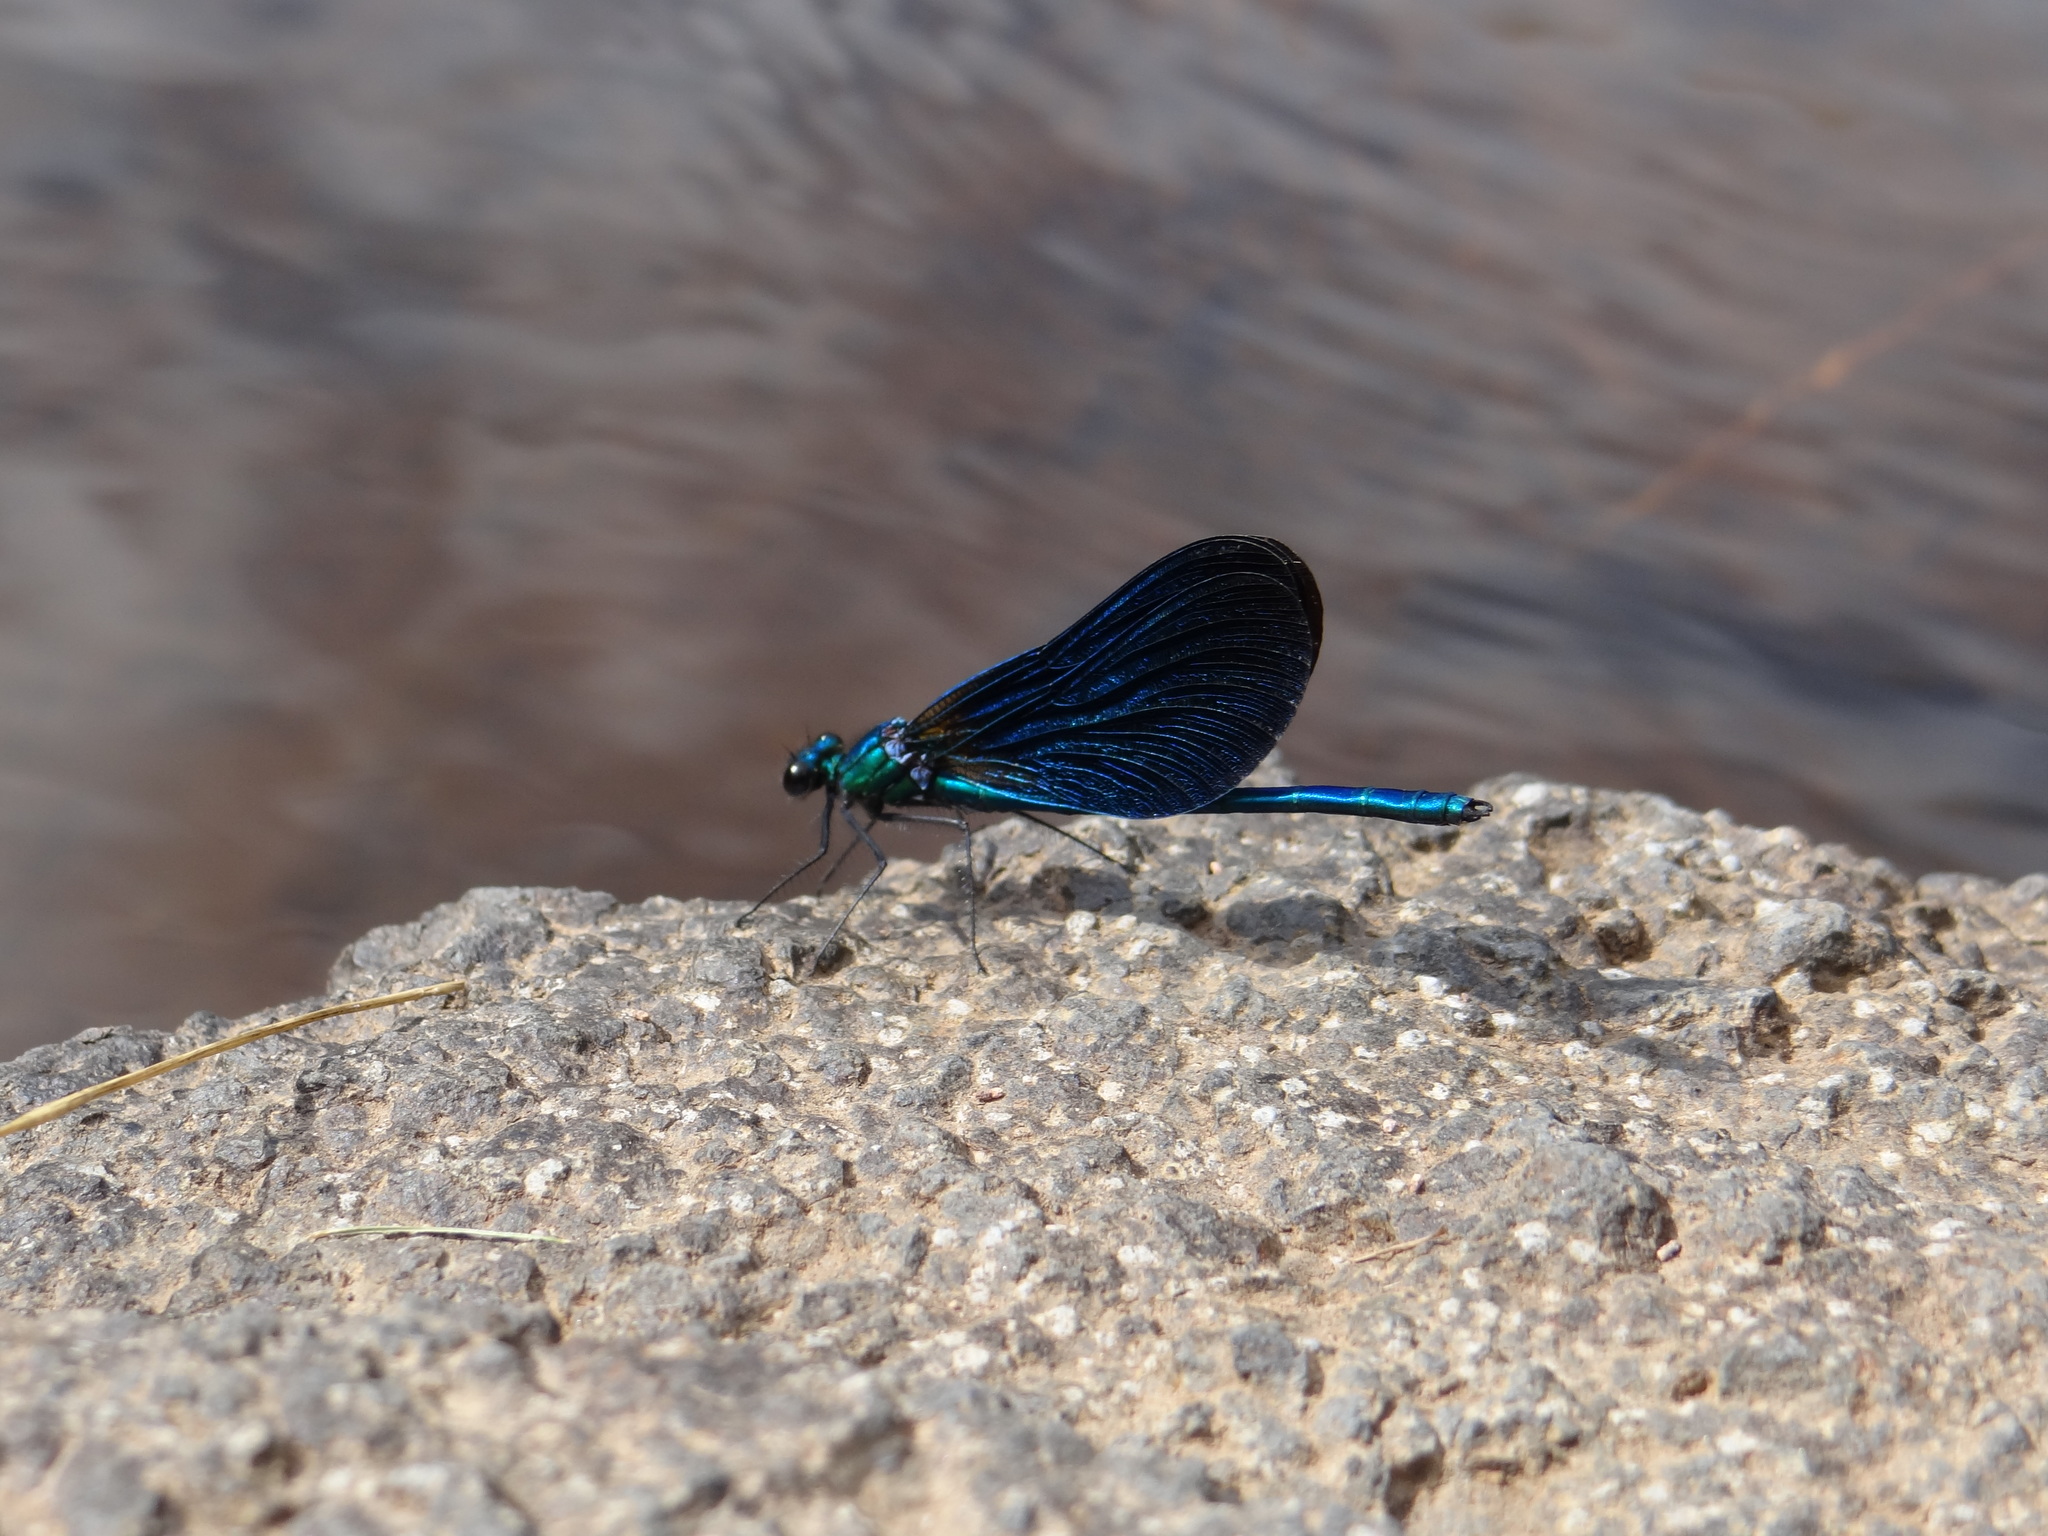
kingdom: Animalia
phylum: Arthropoda
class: Insecta
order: Odonata
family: Calopterygidae
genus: Calopteryx
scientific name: Calopteryx virgo
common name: Beautiful demoiselle
